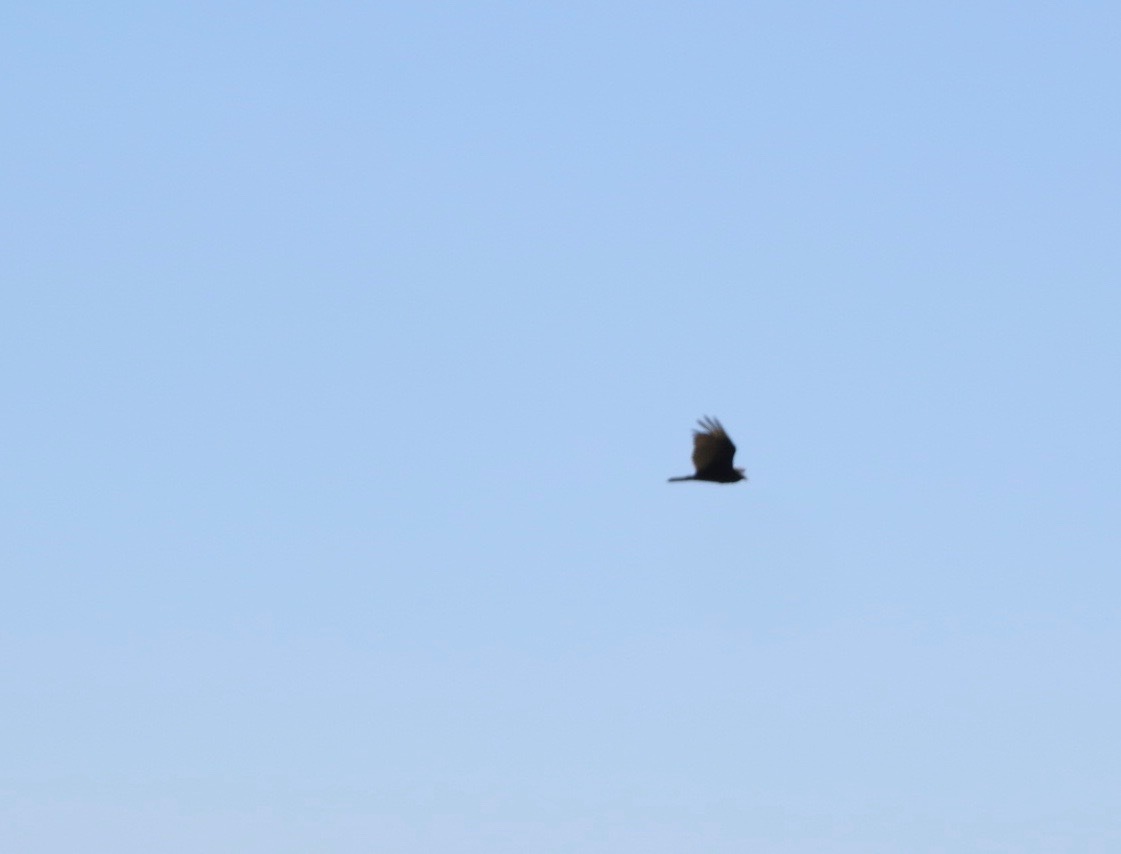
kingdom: Animalia
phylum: Chordata
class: Aves
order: Accipitriformes
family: Cathartidae
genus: Cathartes
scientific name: Cathartes aura
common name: Turkey vulture
